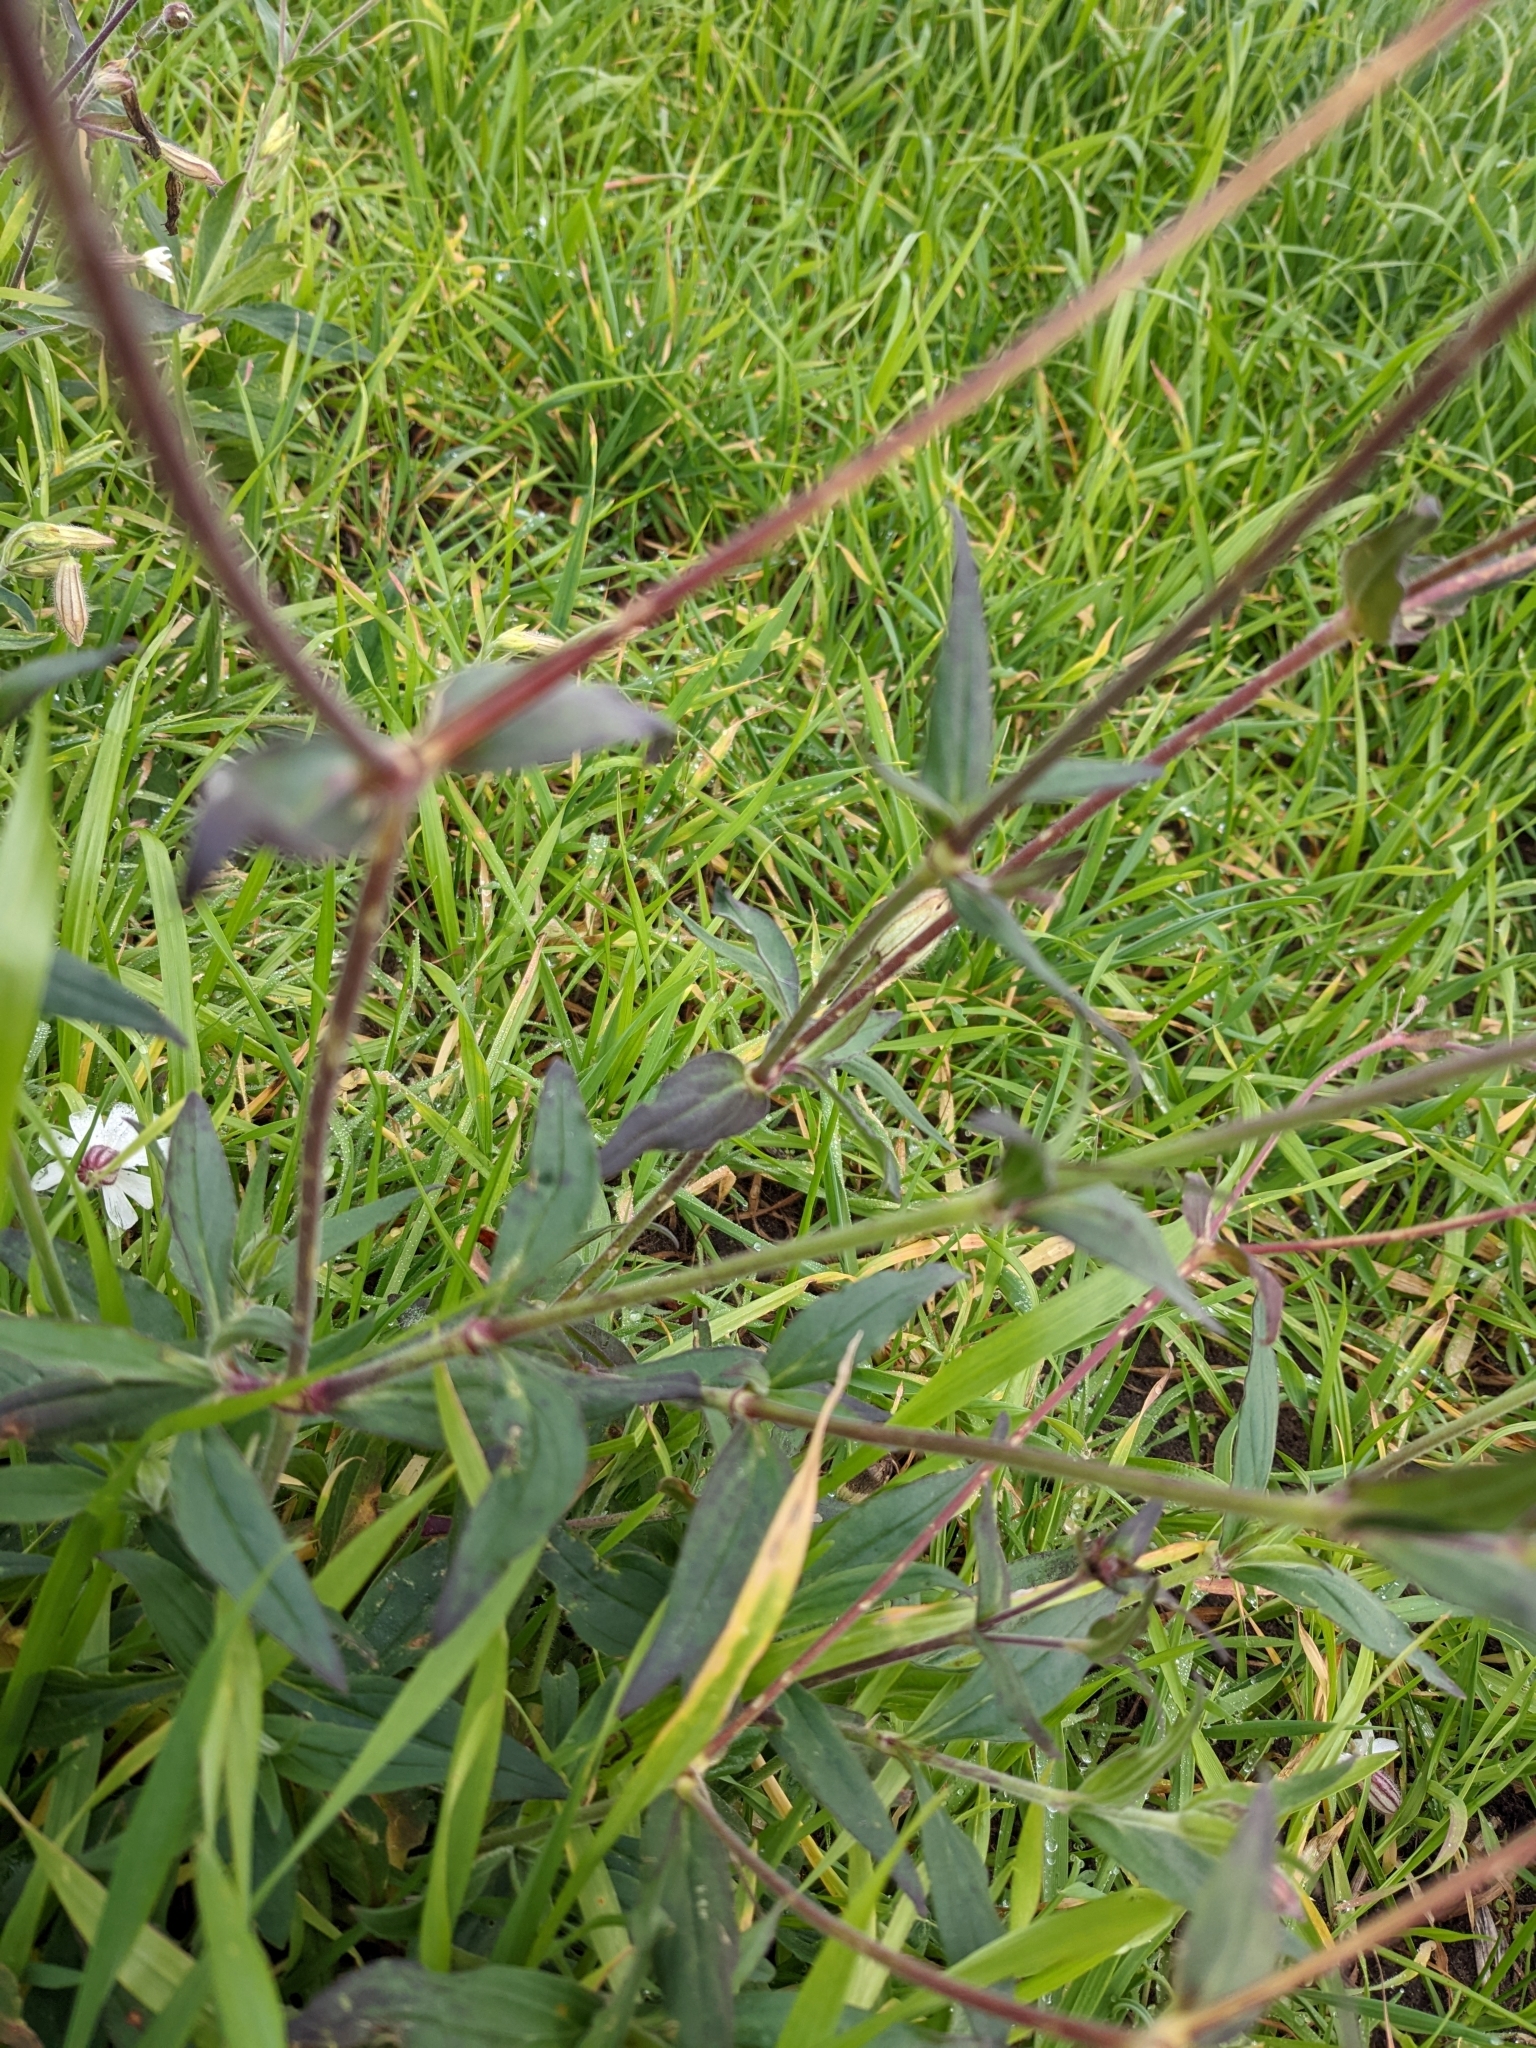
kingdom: Plantae
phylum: Tracheophyta
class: Magnoliopsida
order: Caryophyllales
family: Caryophyllaceae
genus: Silene
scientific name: Silene latifolia
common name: White campion
